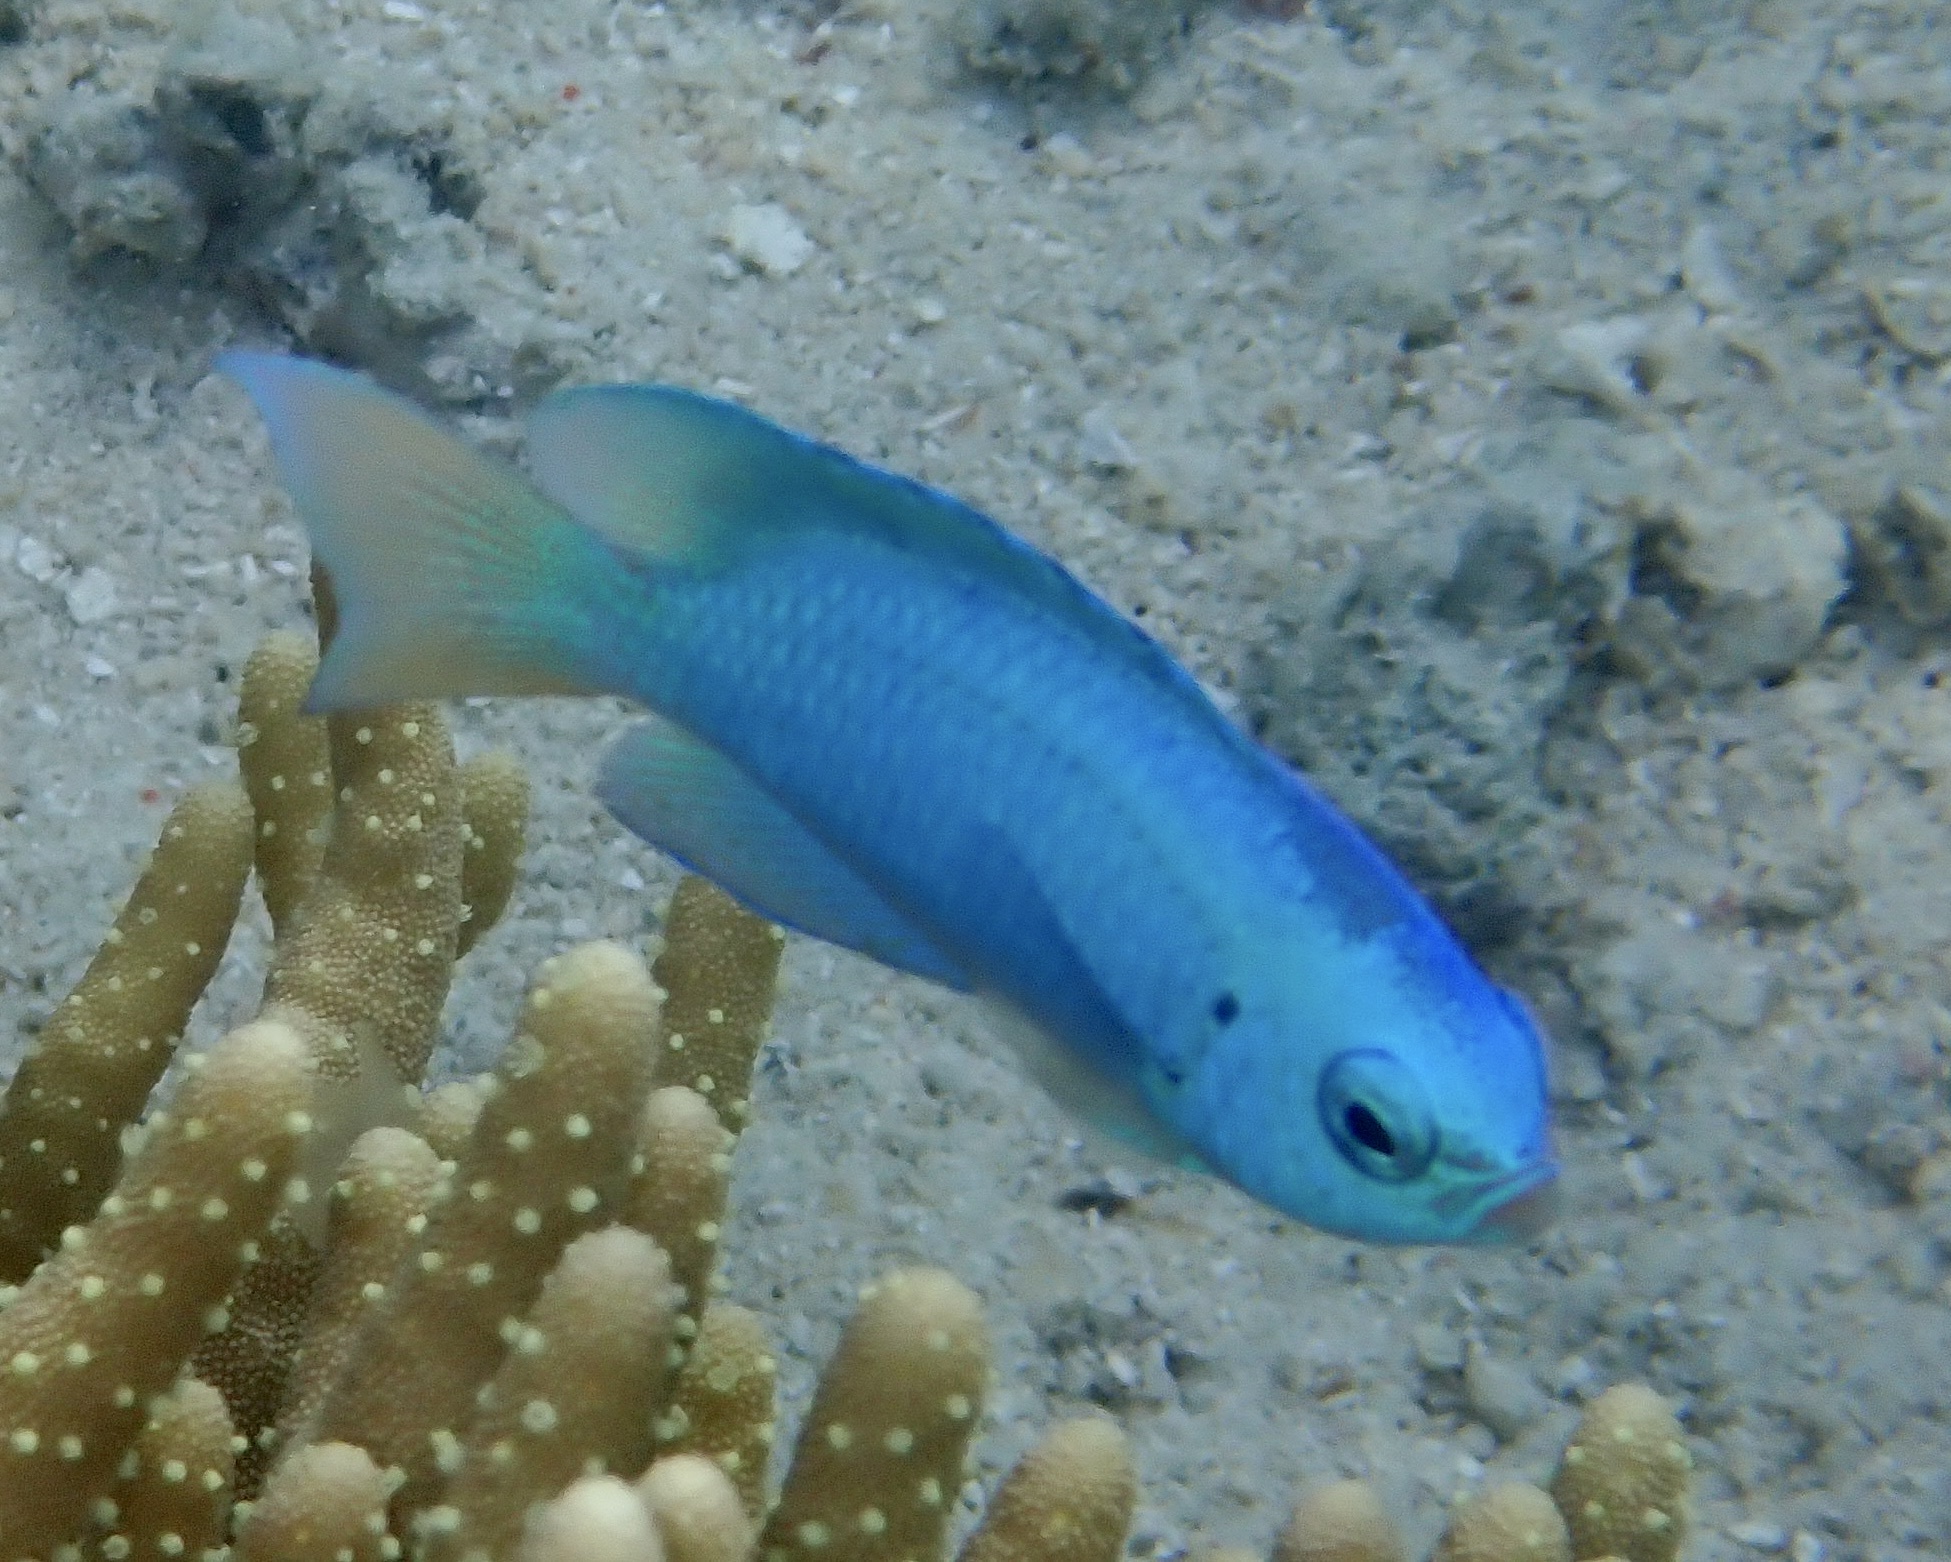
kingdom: Animalia
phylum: Chordata
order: Perciformes
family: Pomacentridae
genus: Pomacentrus
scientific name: Pomacentrus coelestis
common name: Neon damsel
